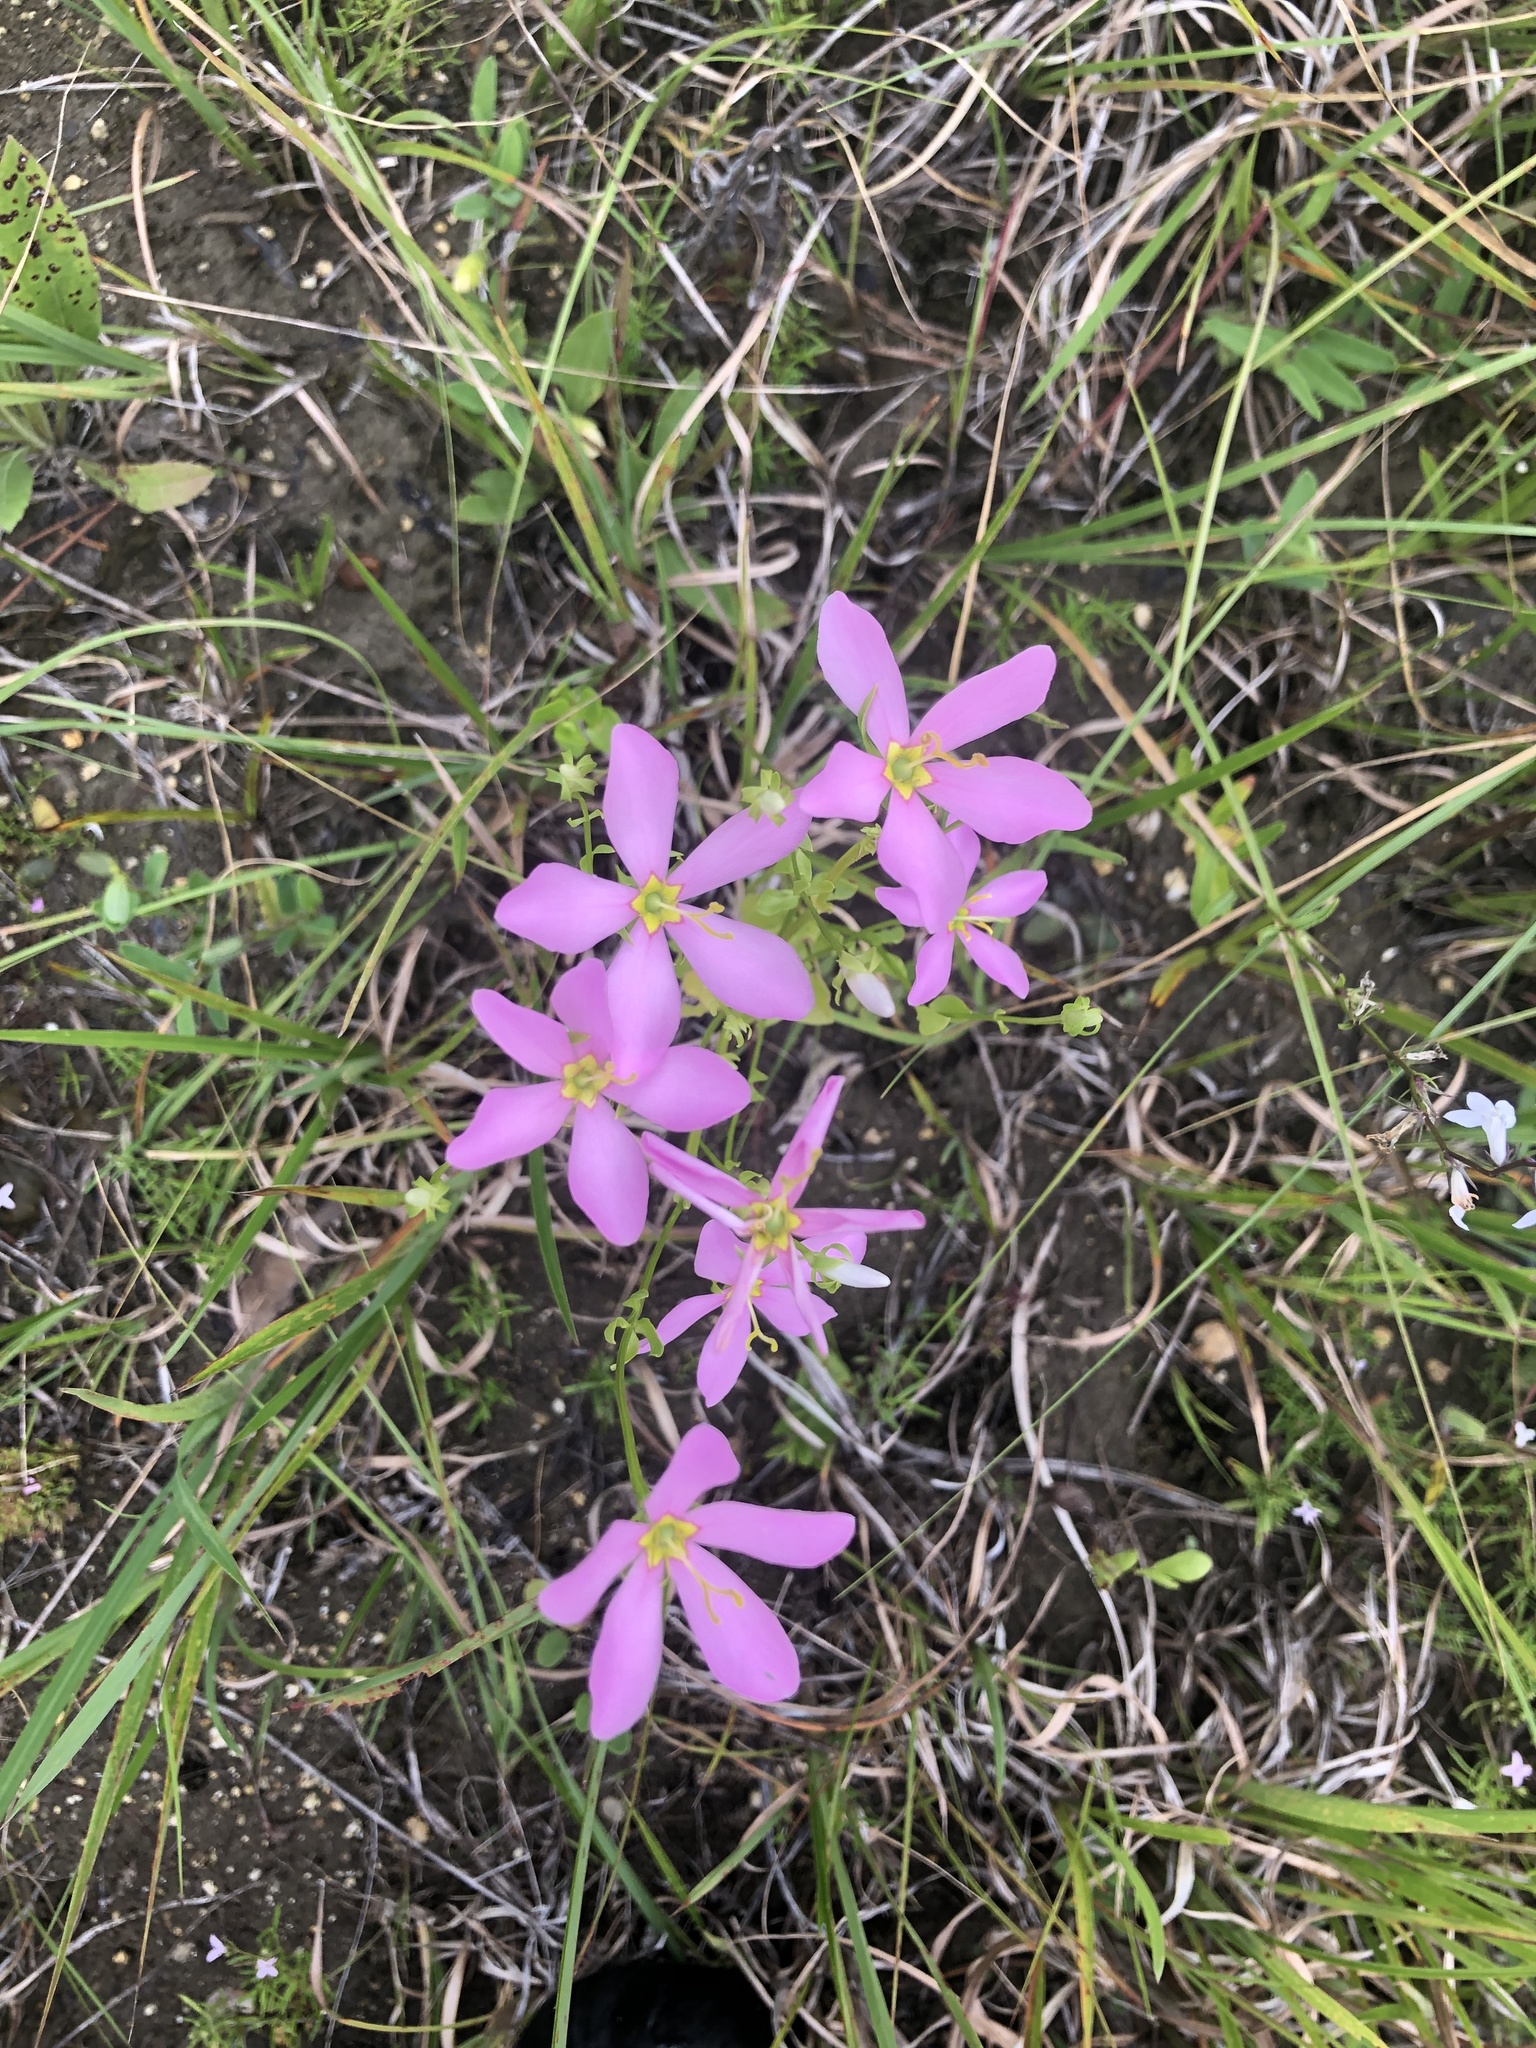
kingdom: Plantae
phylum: Tracheophyta
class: Magnoliopsida
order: Gentianales
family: Gentianaceae
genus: Sabatia
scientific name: Sabatia angularis
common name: Rose-pink
